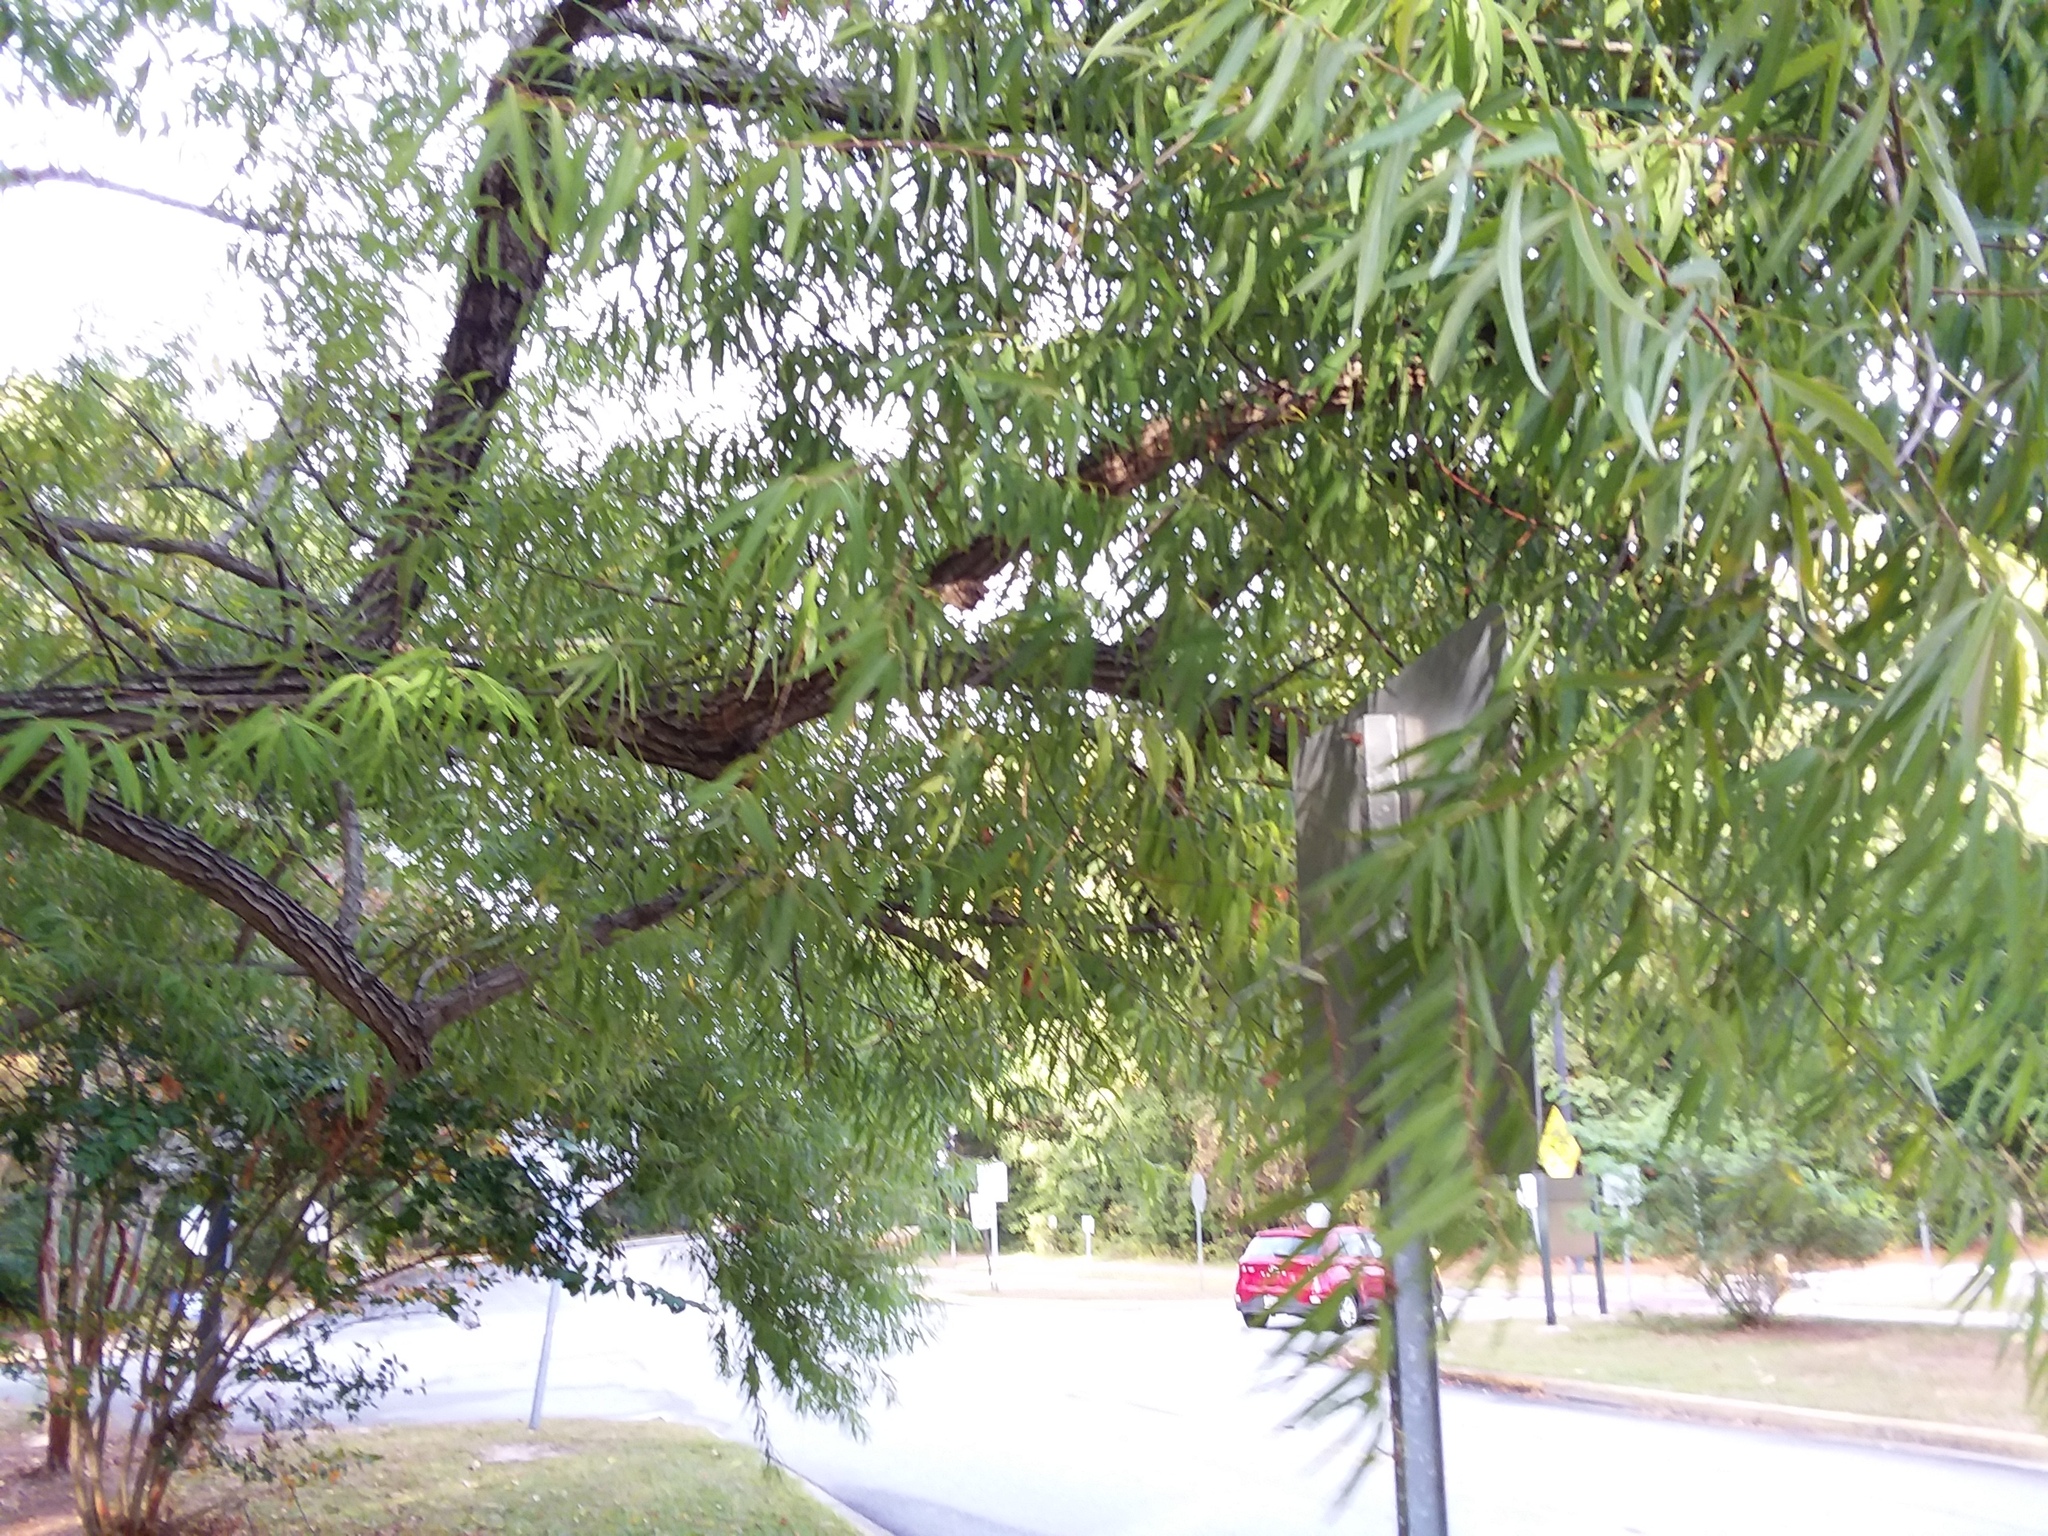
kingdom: Plantae
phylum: Tracheophyta
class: Magnoliopsida
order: Malpighiales
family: Salicaceae
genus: Salix
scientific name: Salix nigra
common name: Black willow
